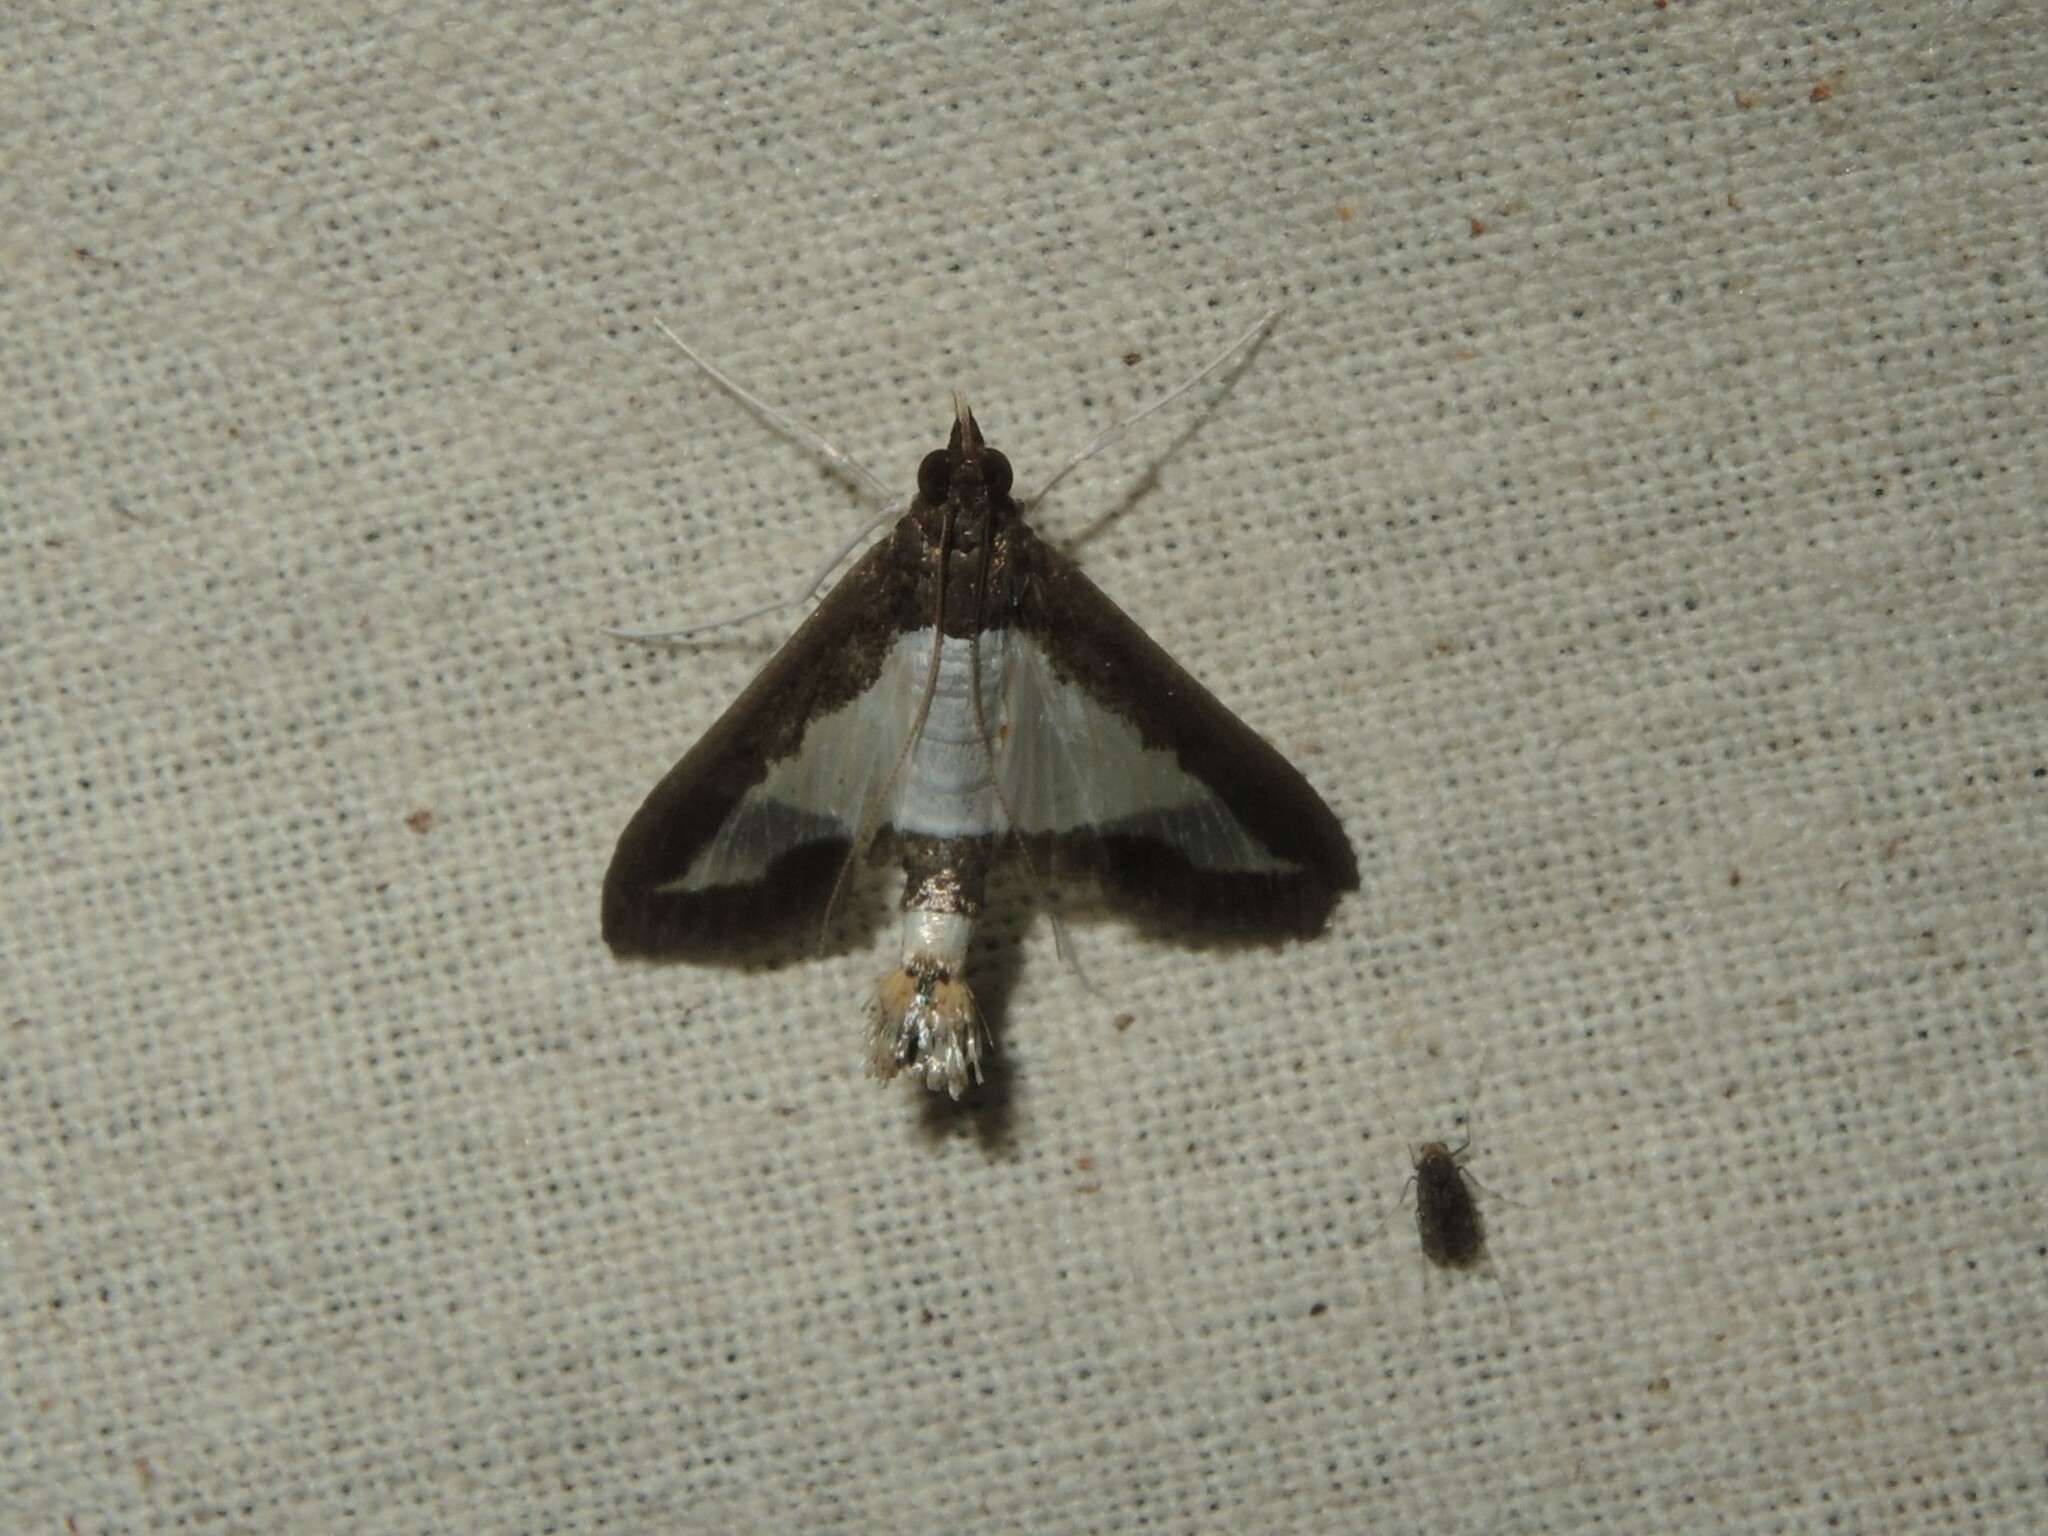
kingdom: Animalia
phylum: Arthropoda
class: Insecta
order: Lepidoptera
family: Crambidae
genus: Diaphania
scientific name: Diaphania indica
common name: Cucumber moth
